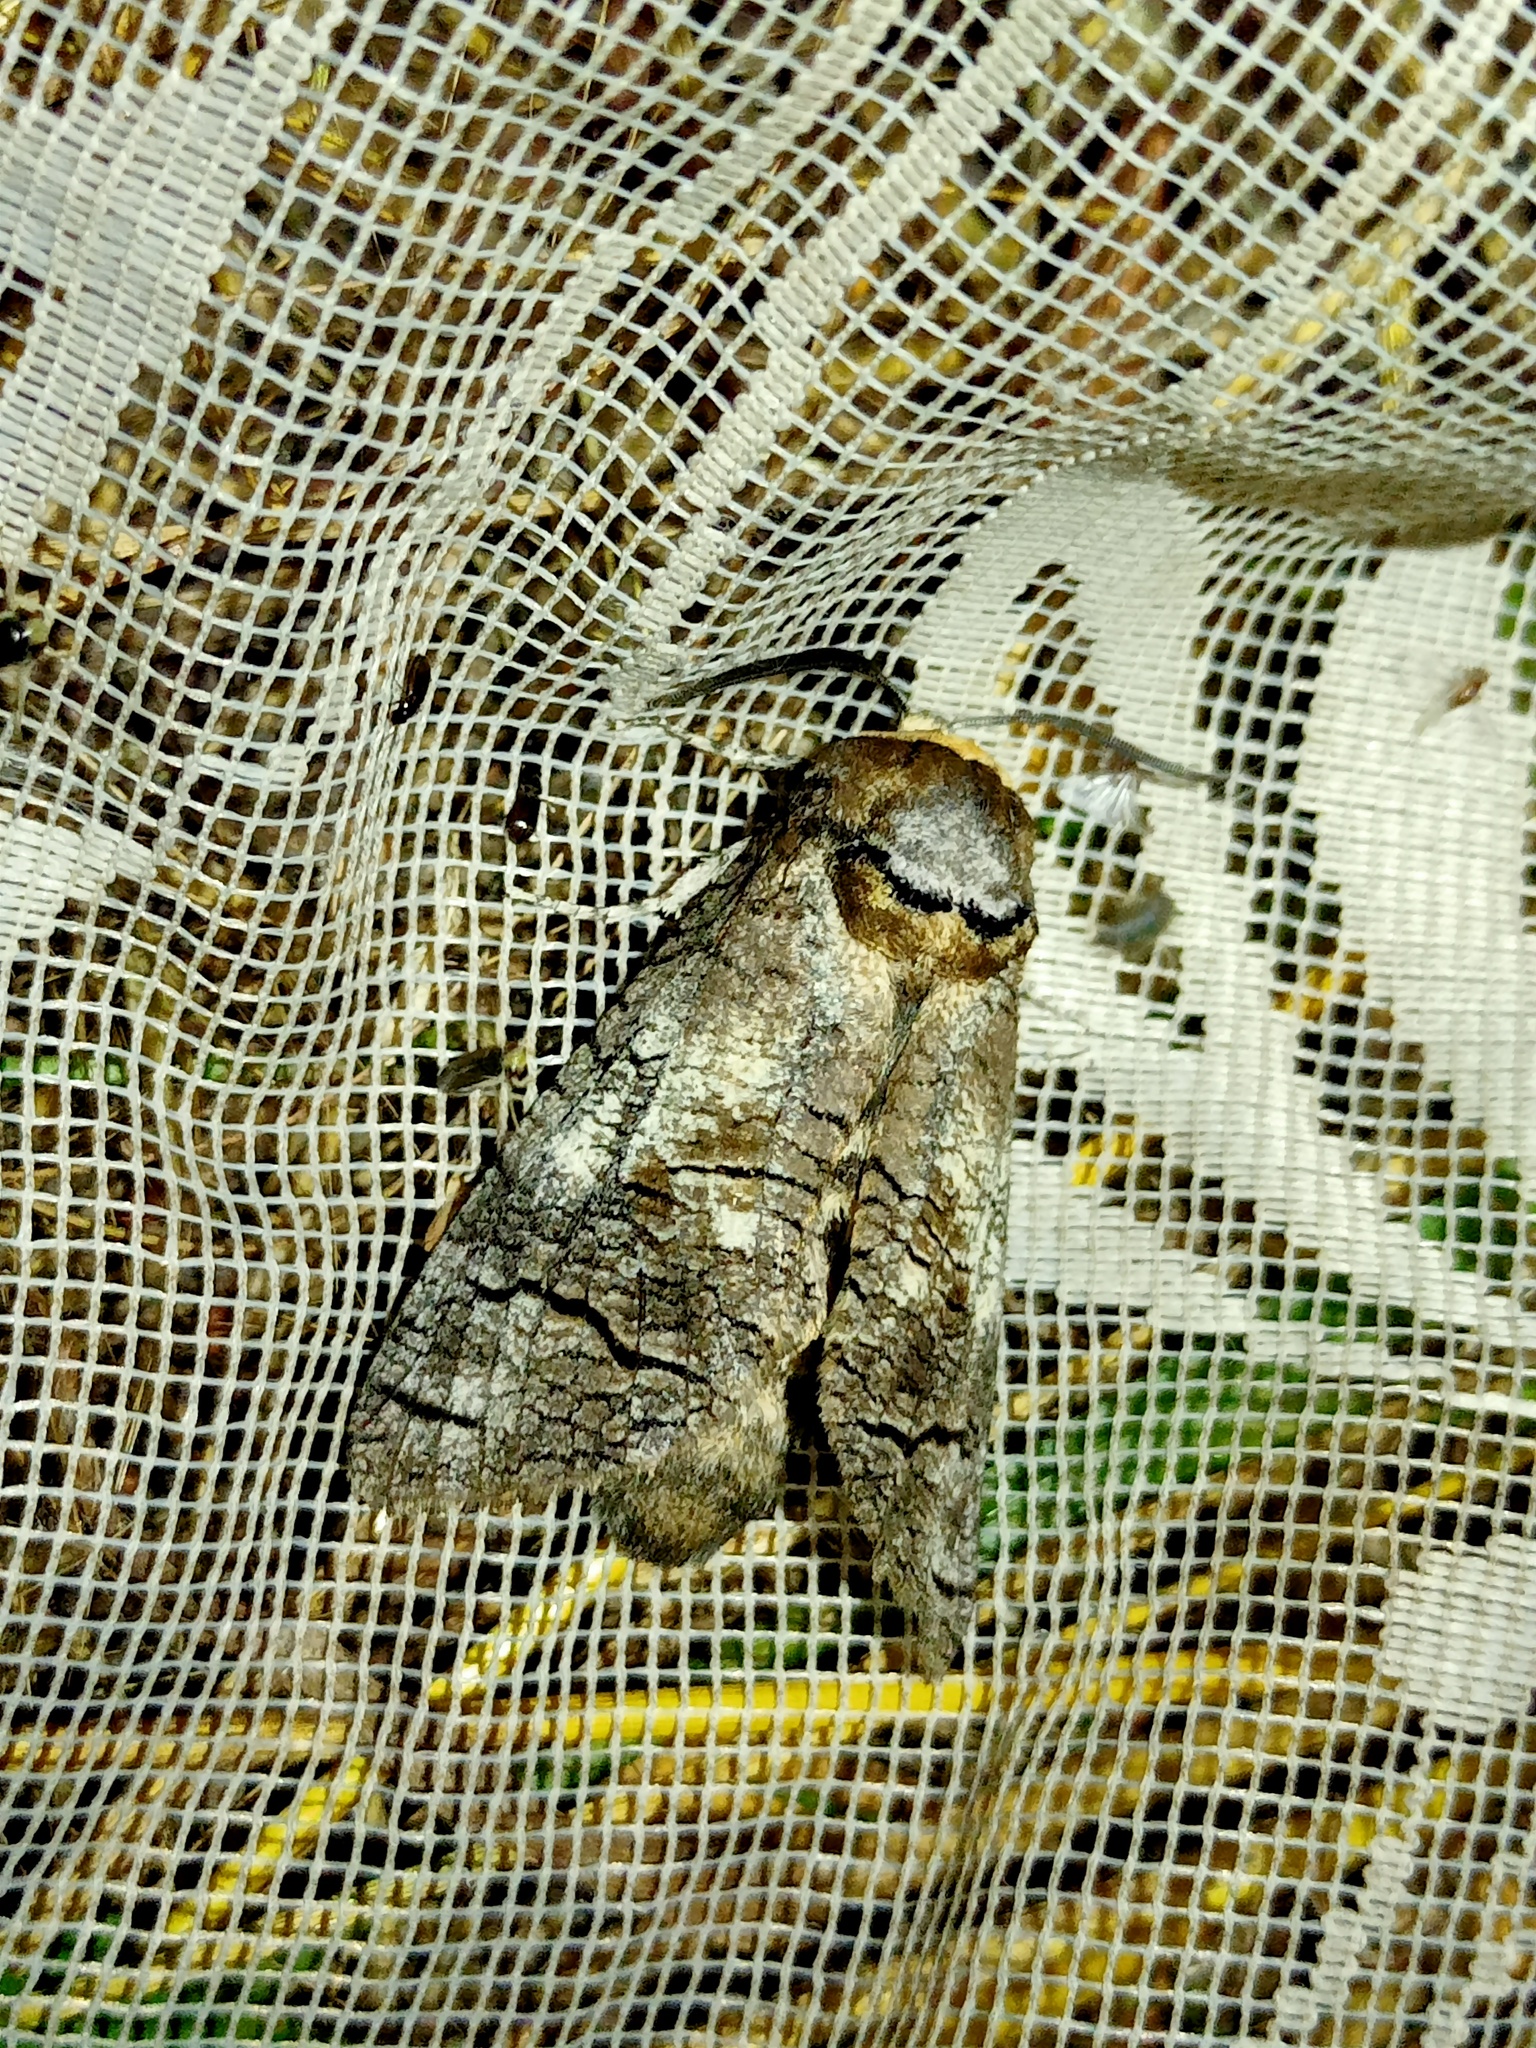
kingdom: Animalia
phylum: Arthropoda
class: Insecta
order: Lepidoptera
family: Cossidae
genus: Cossus
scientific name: Cossus cossus
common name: Goat moth
